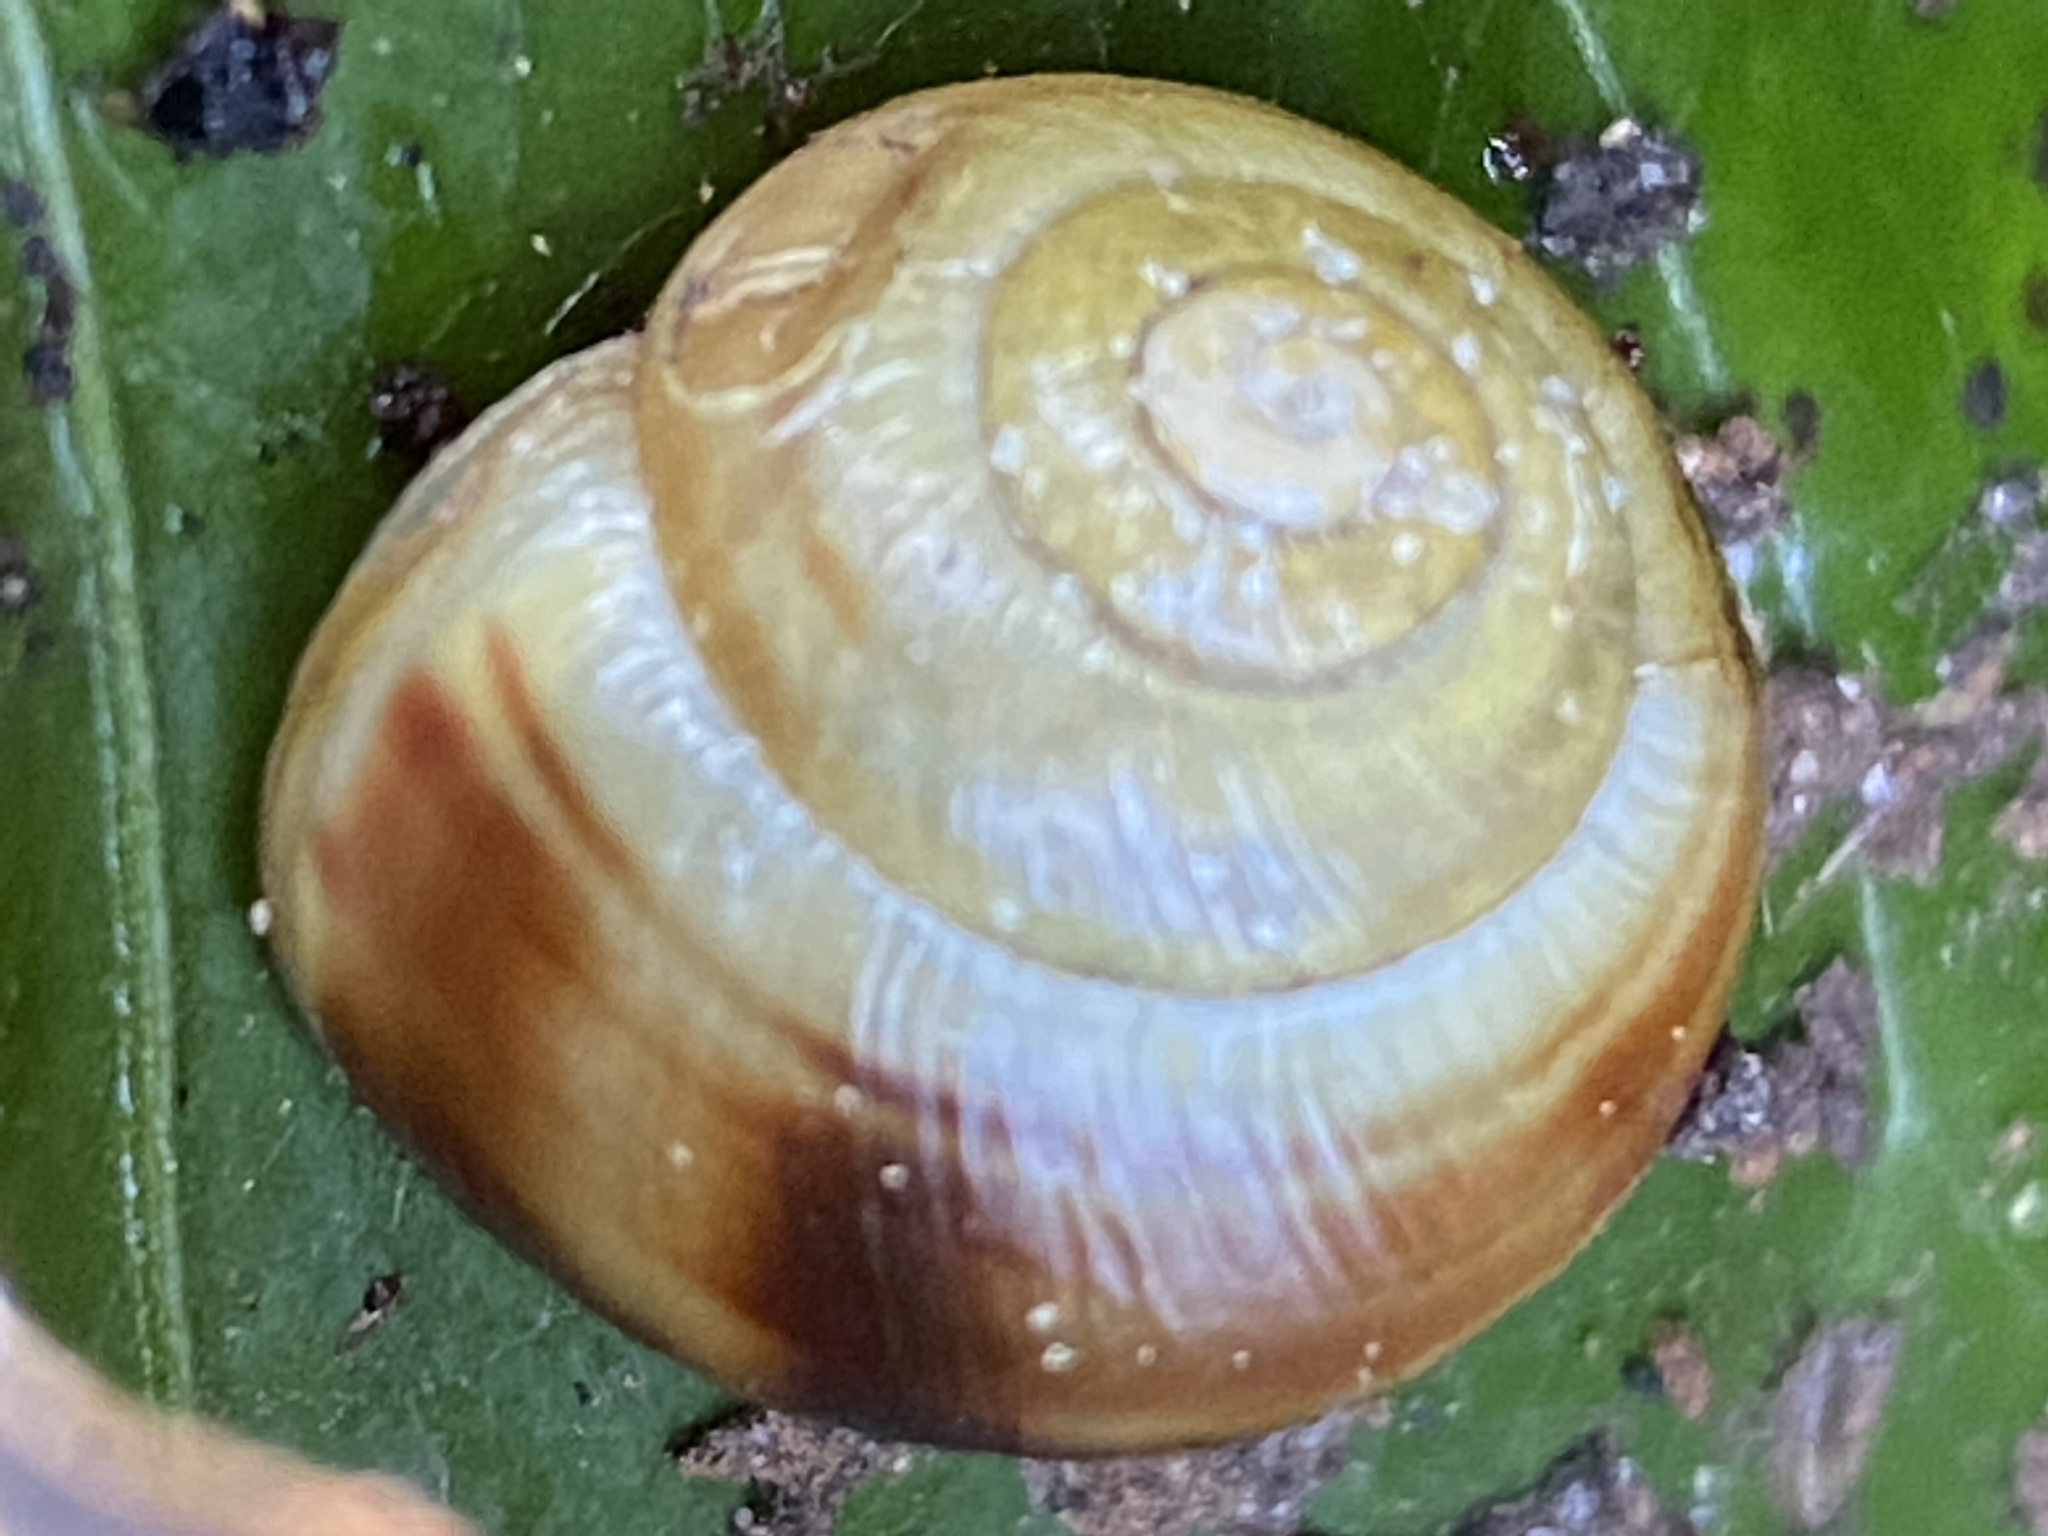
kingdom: Animalia
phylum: Mollusca
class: Gastropoda
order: Stylommatophora
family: Helicidae
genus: Cepaea
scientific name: Cepaea hortensis
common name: White-lip gardensnail
